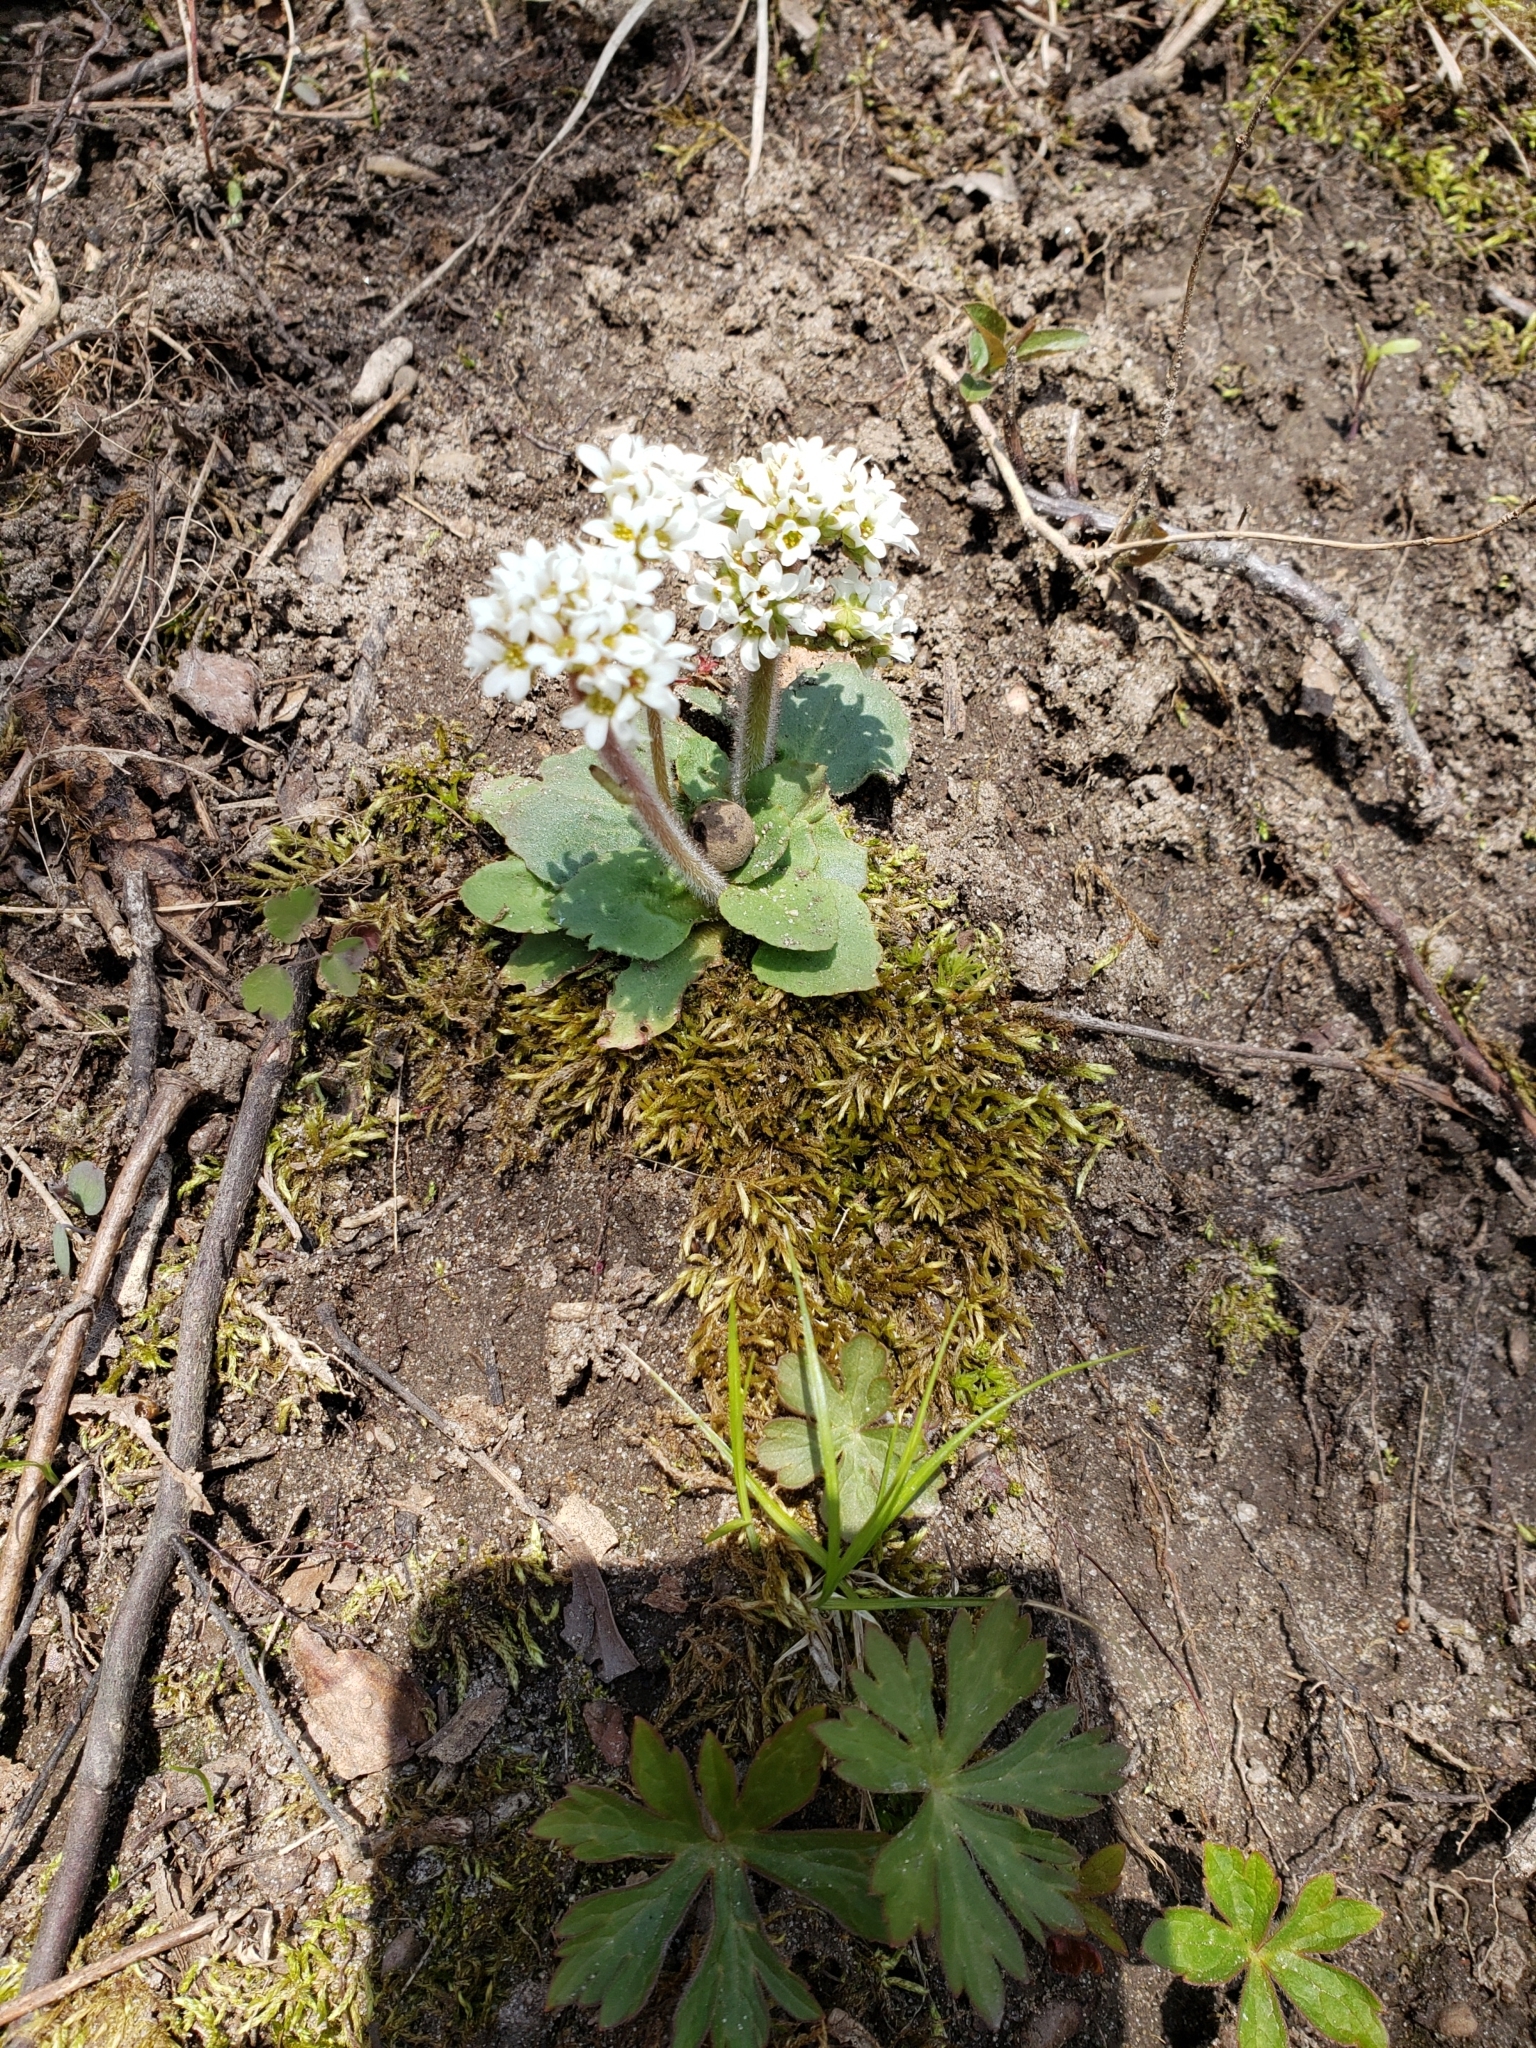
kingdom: Plantae
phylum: Tracheophyta
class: Magnoliopsida
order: Saxifragales
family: Saxifragaceae
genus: Micranthes
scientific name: Micranthes virginiensis
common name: Early saxifrage
